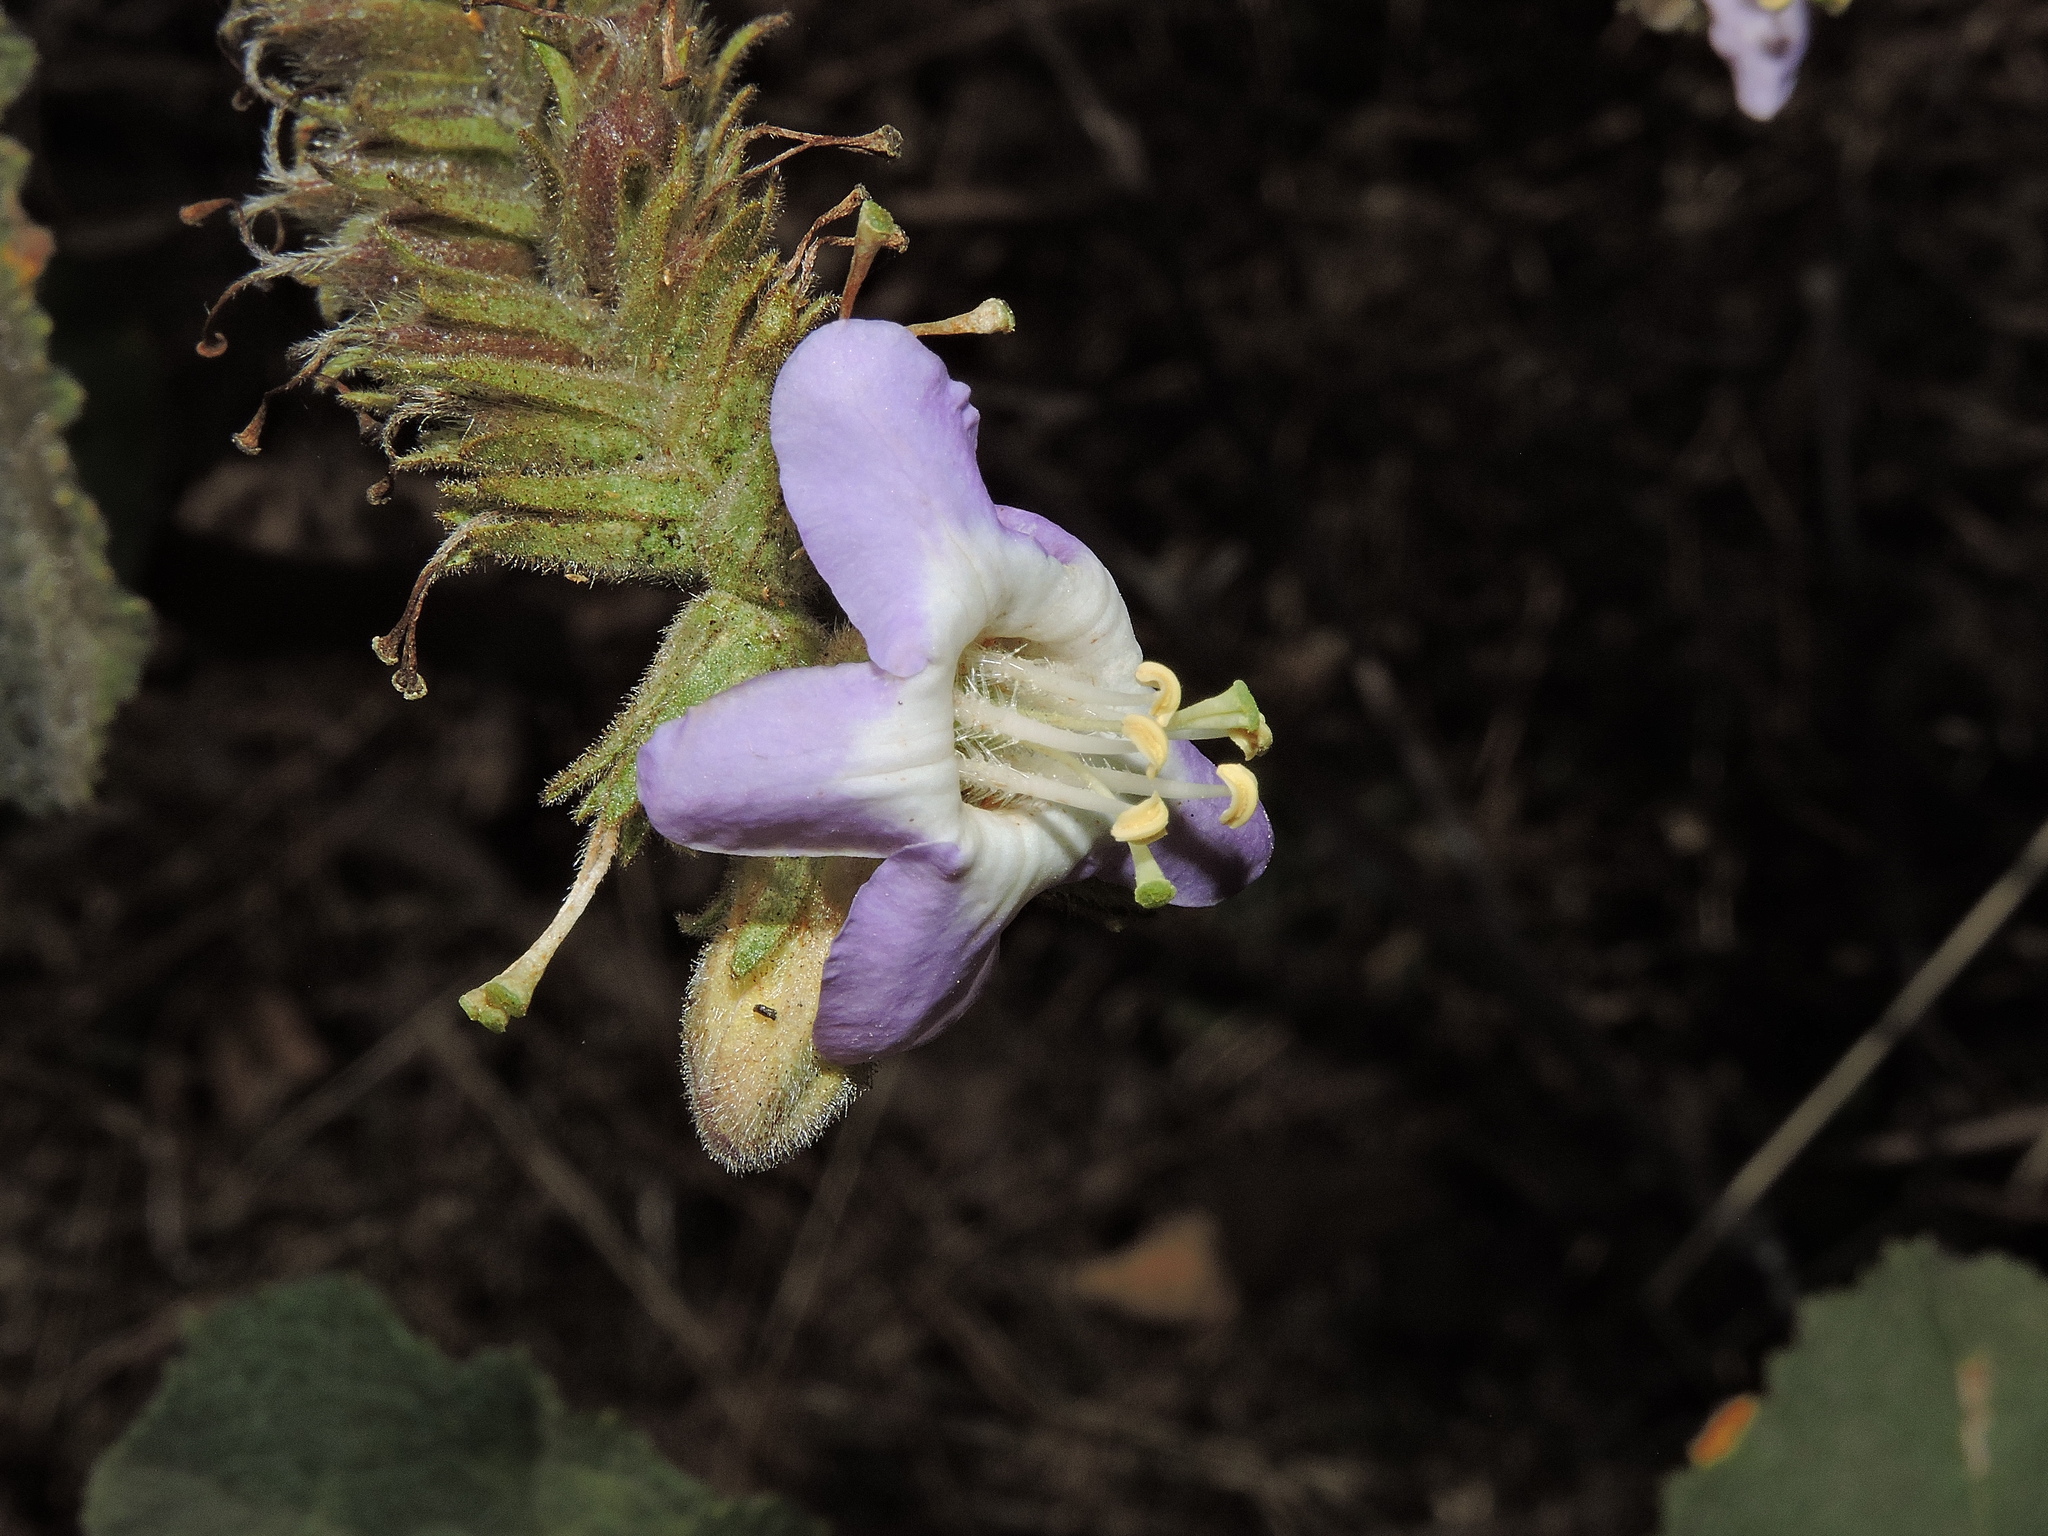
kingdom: Plantae
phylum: Tracheophyta
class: Magnoliopsida
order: Boraginales
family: Namaceae
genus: Wigandia
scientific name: Wigandia urens
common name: Caracus wigandia
